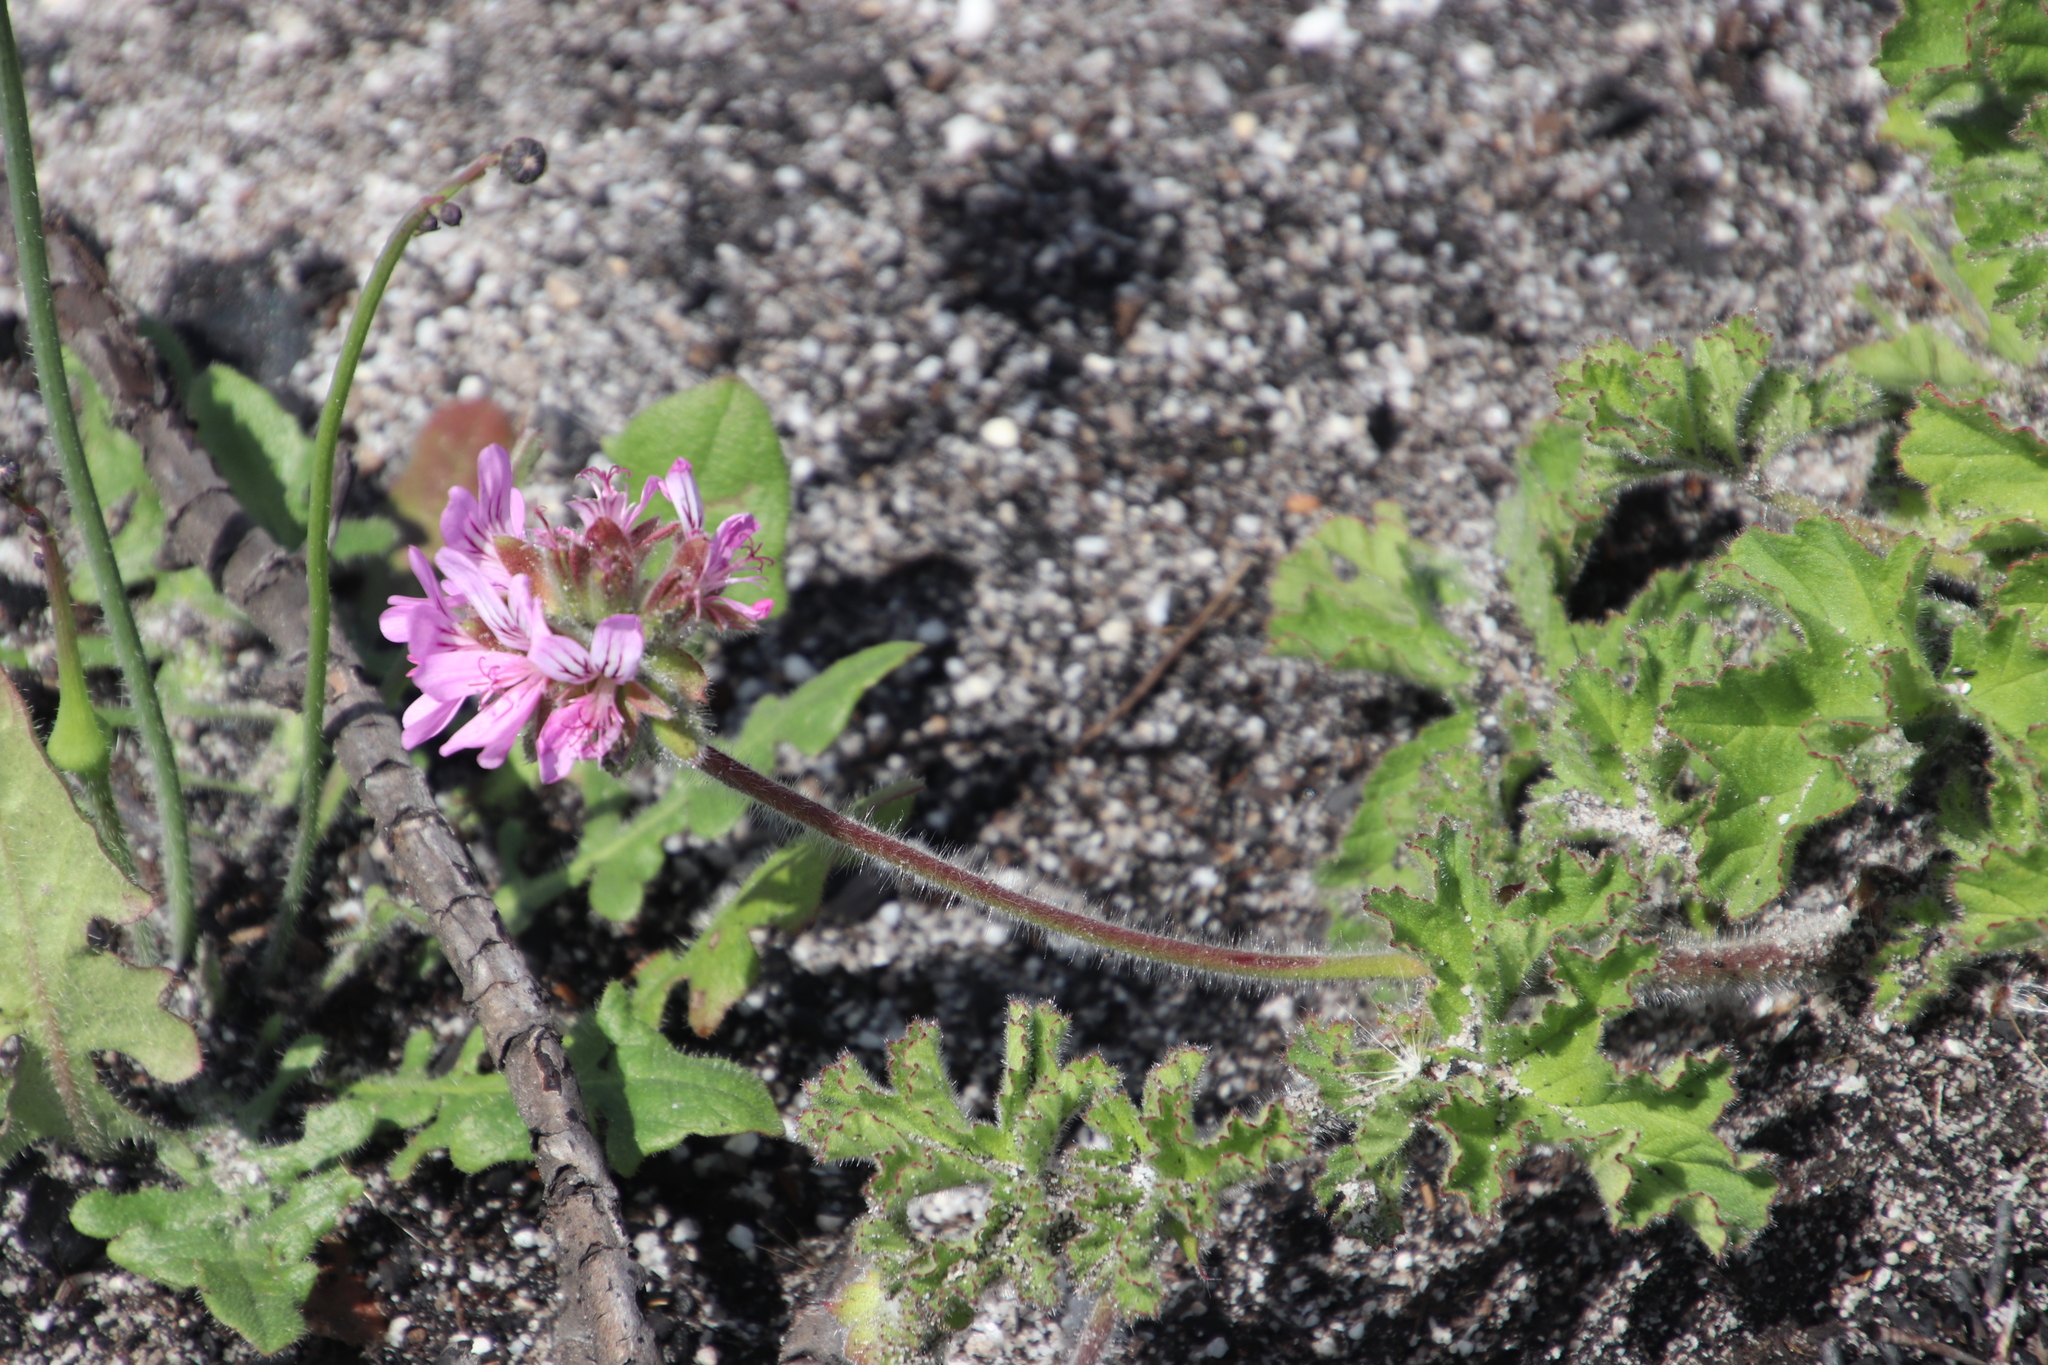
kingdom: Plantae
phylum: Tracheophyta
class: Magnoliopsida
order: Geraniales
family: Geraniaceae
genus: Pelargonium
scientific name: Pelargonium capitatum
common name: Rose scented geranium
